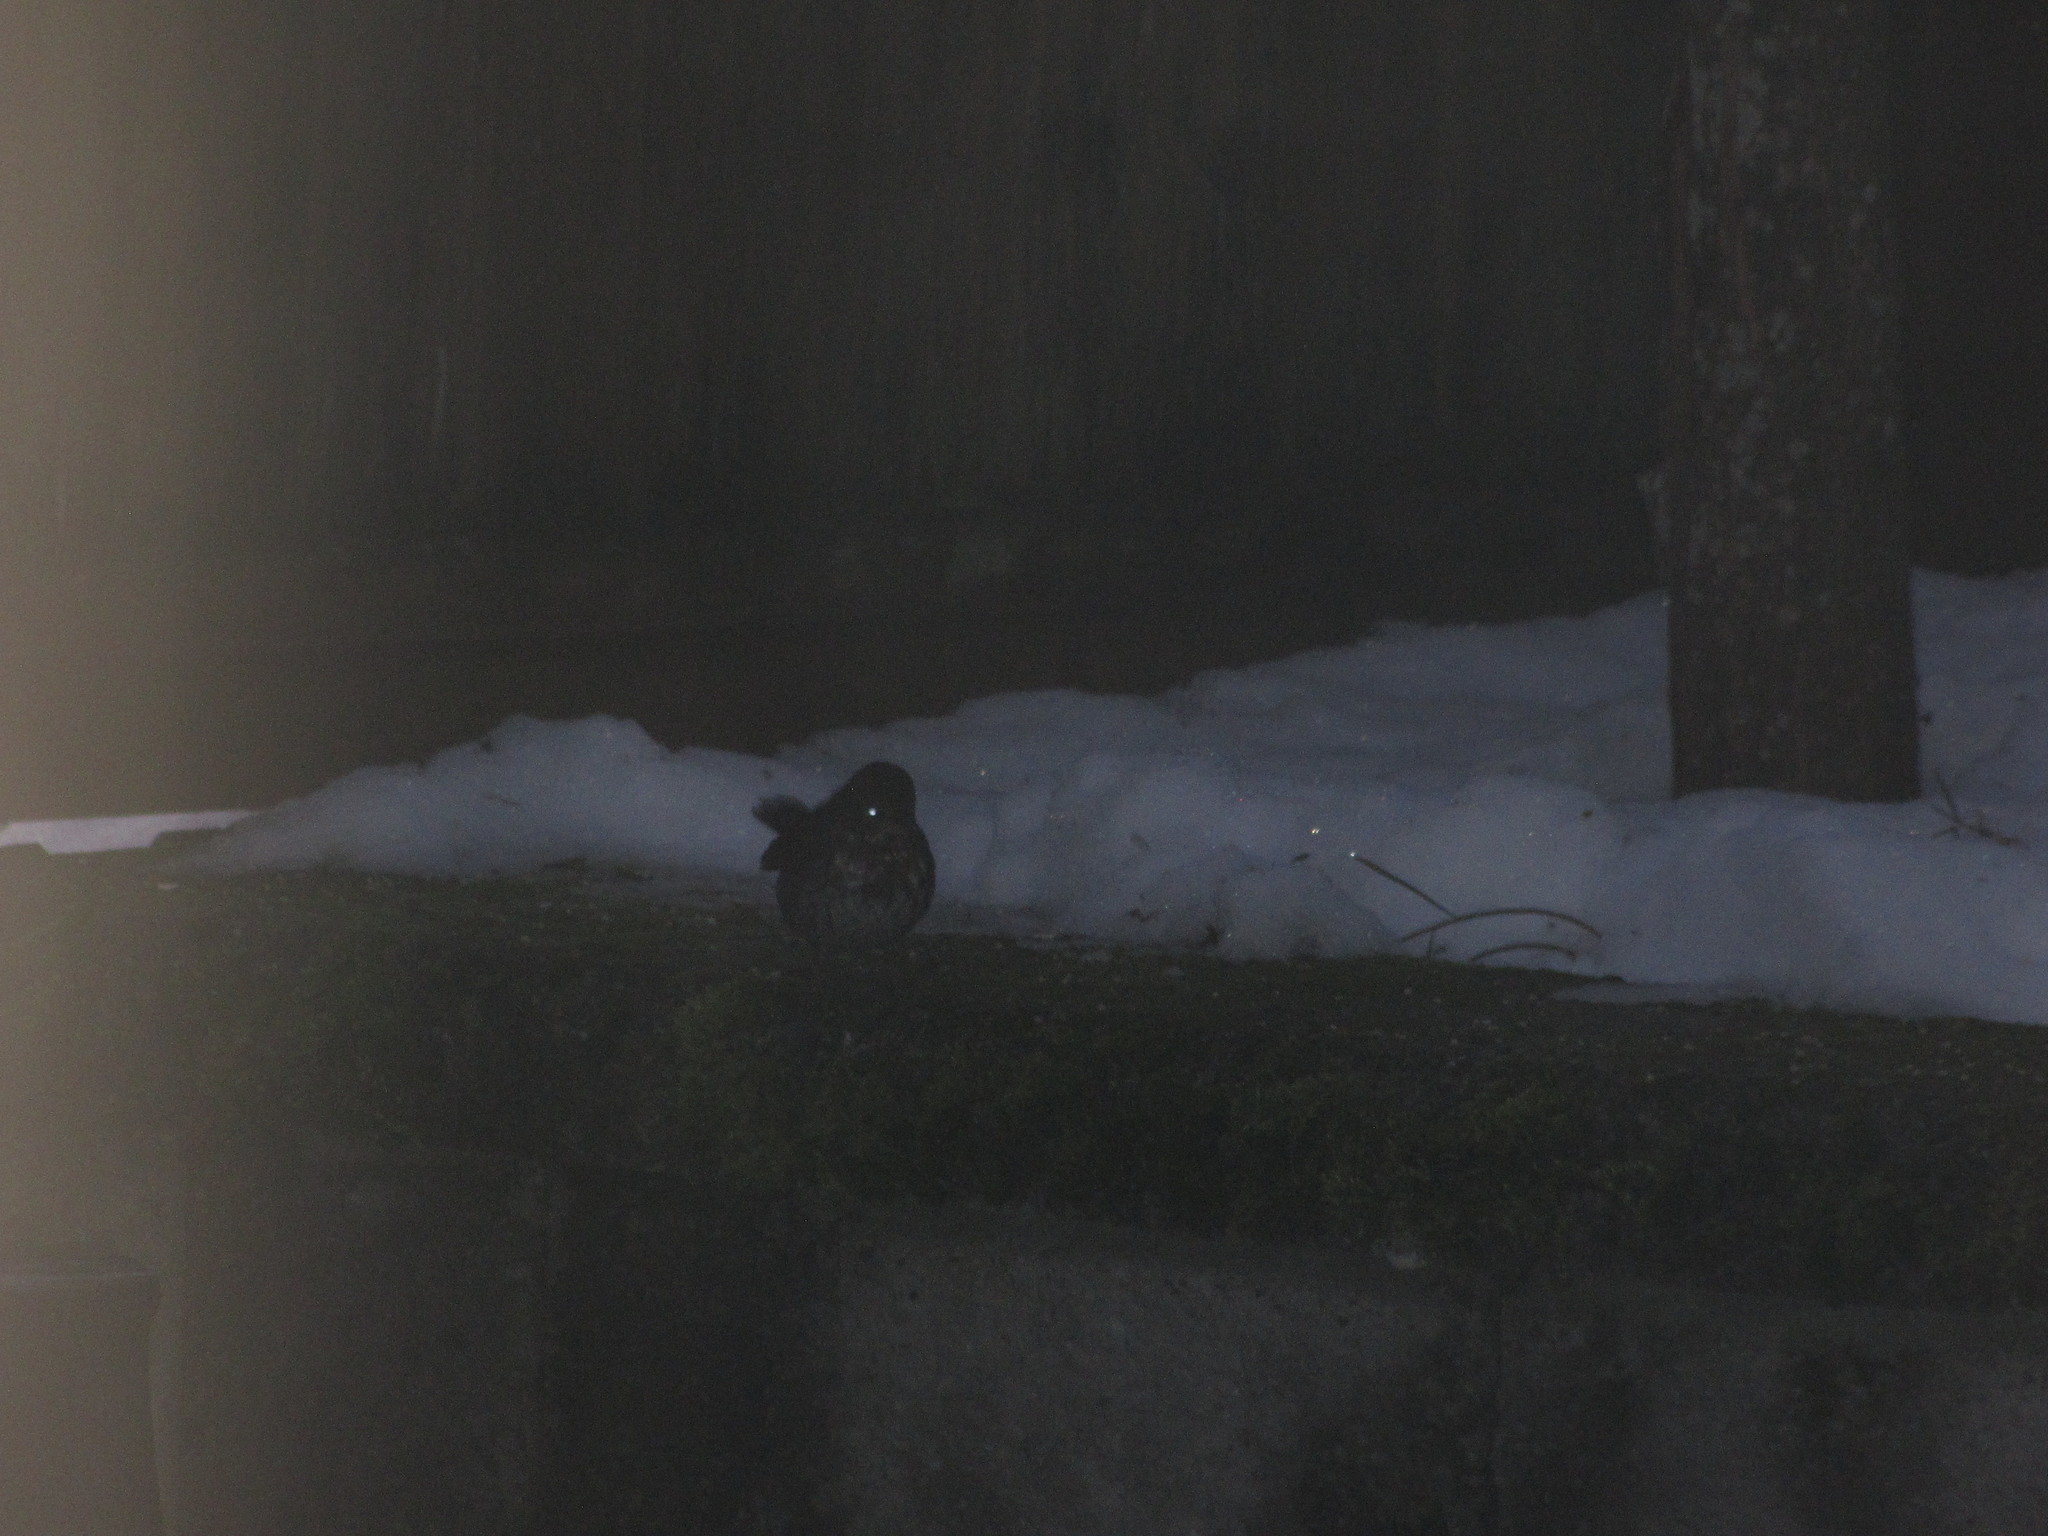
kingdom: Animalia
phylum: Chordata
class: Aves
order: Passeriformes
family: Passerellidae
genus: Passerella
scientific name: Passerella iliaca
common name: Fox sparrow
